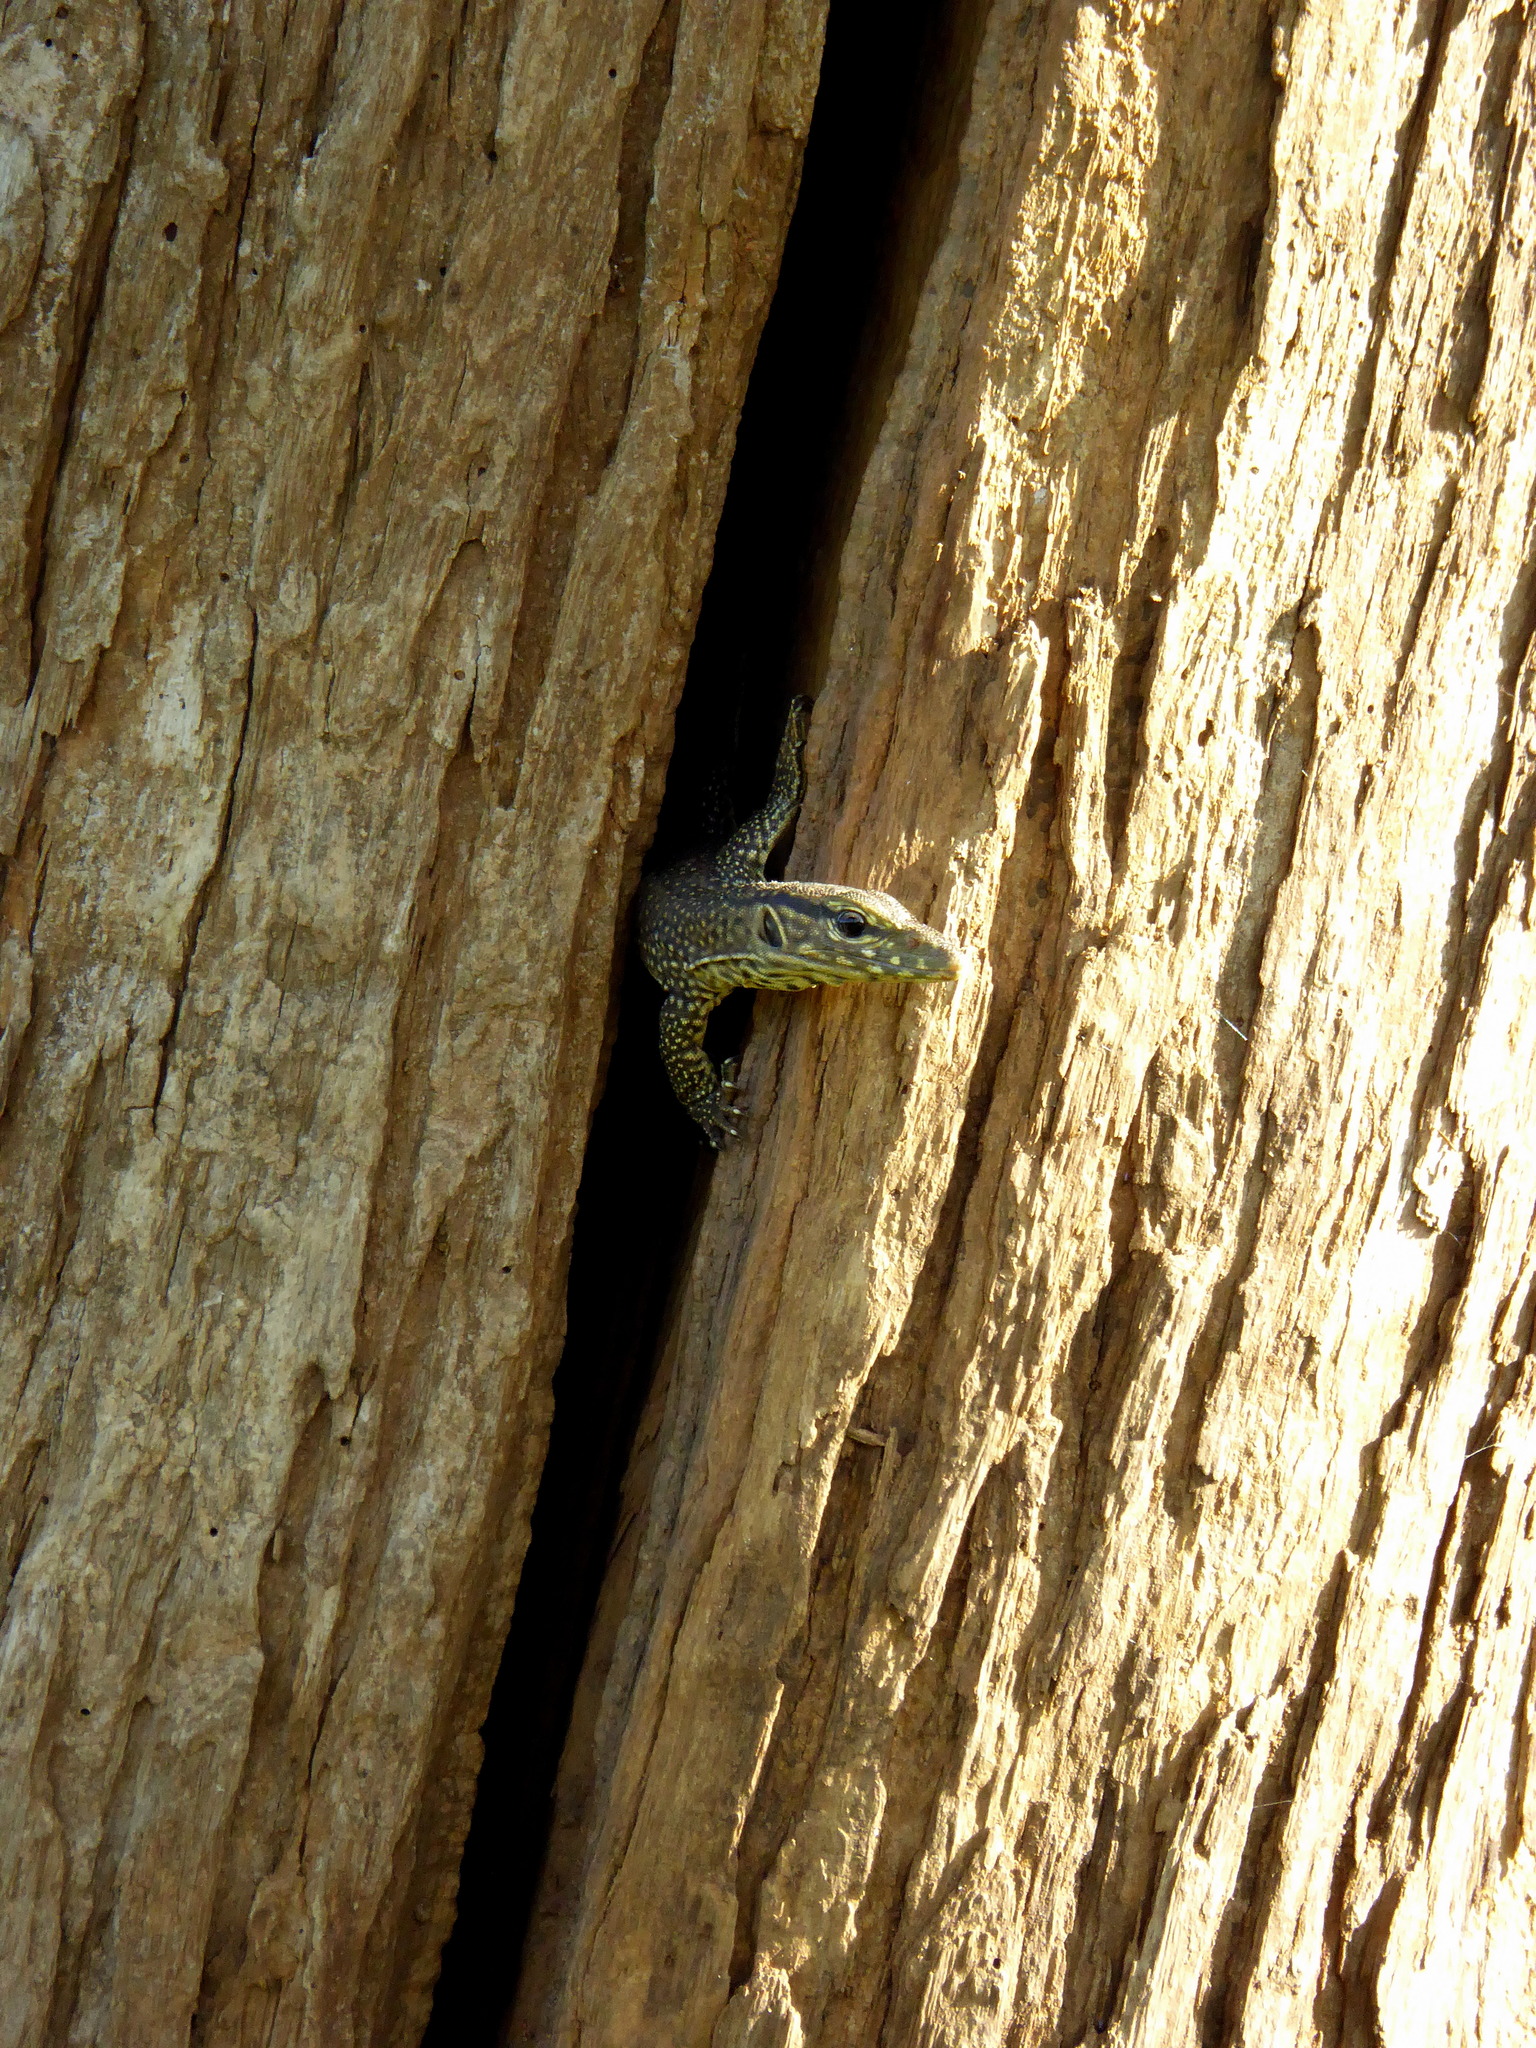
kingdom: Animalia
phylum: Chordata
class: Squamata
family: Varanidae
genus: Varanus
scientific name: Varanus bengalensis
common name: Bengal monitor
